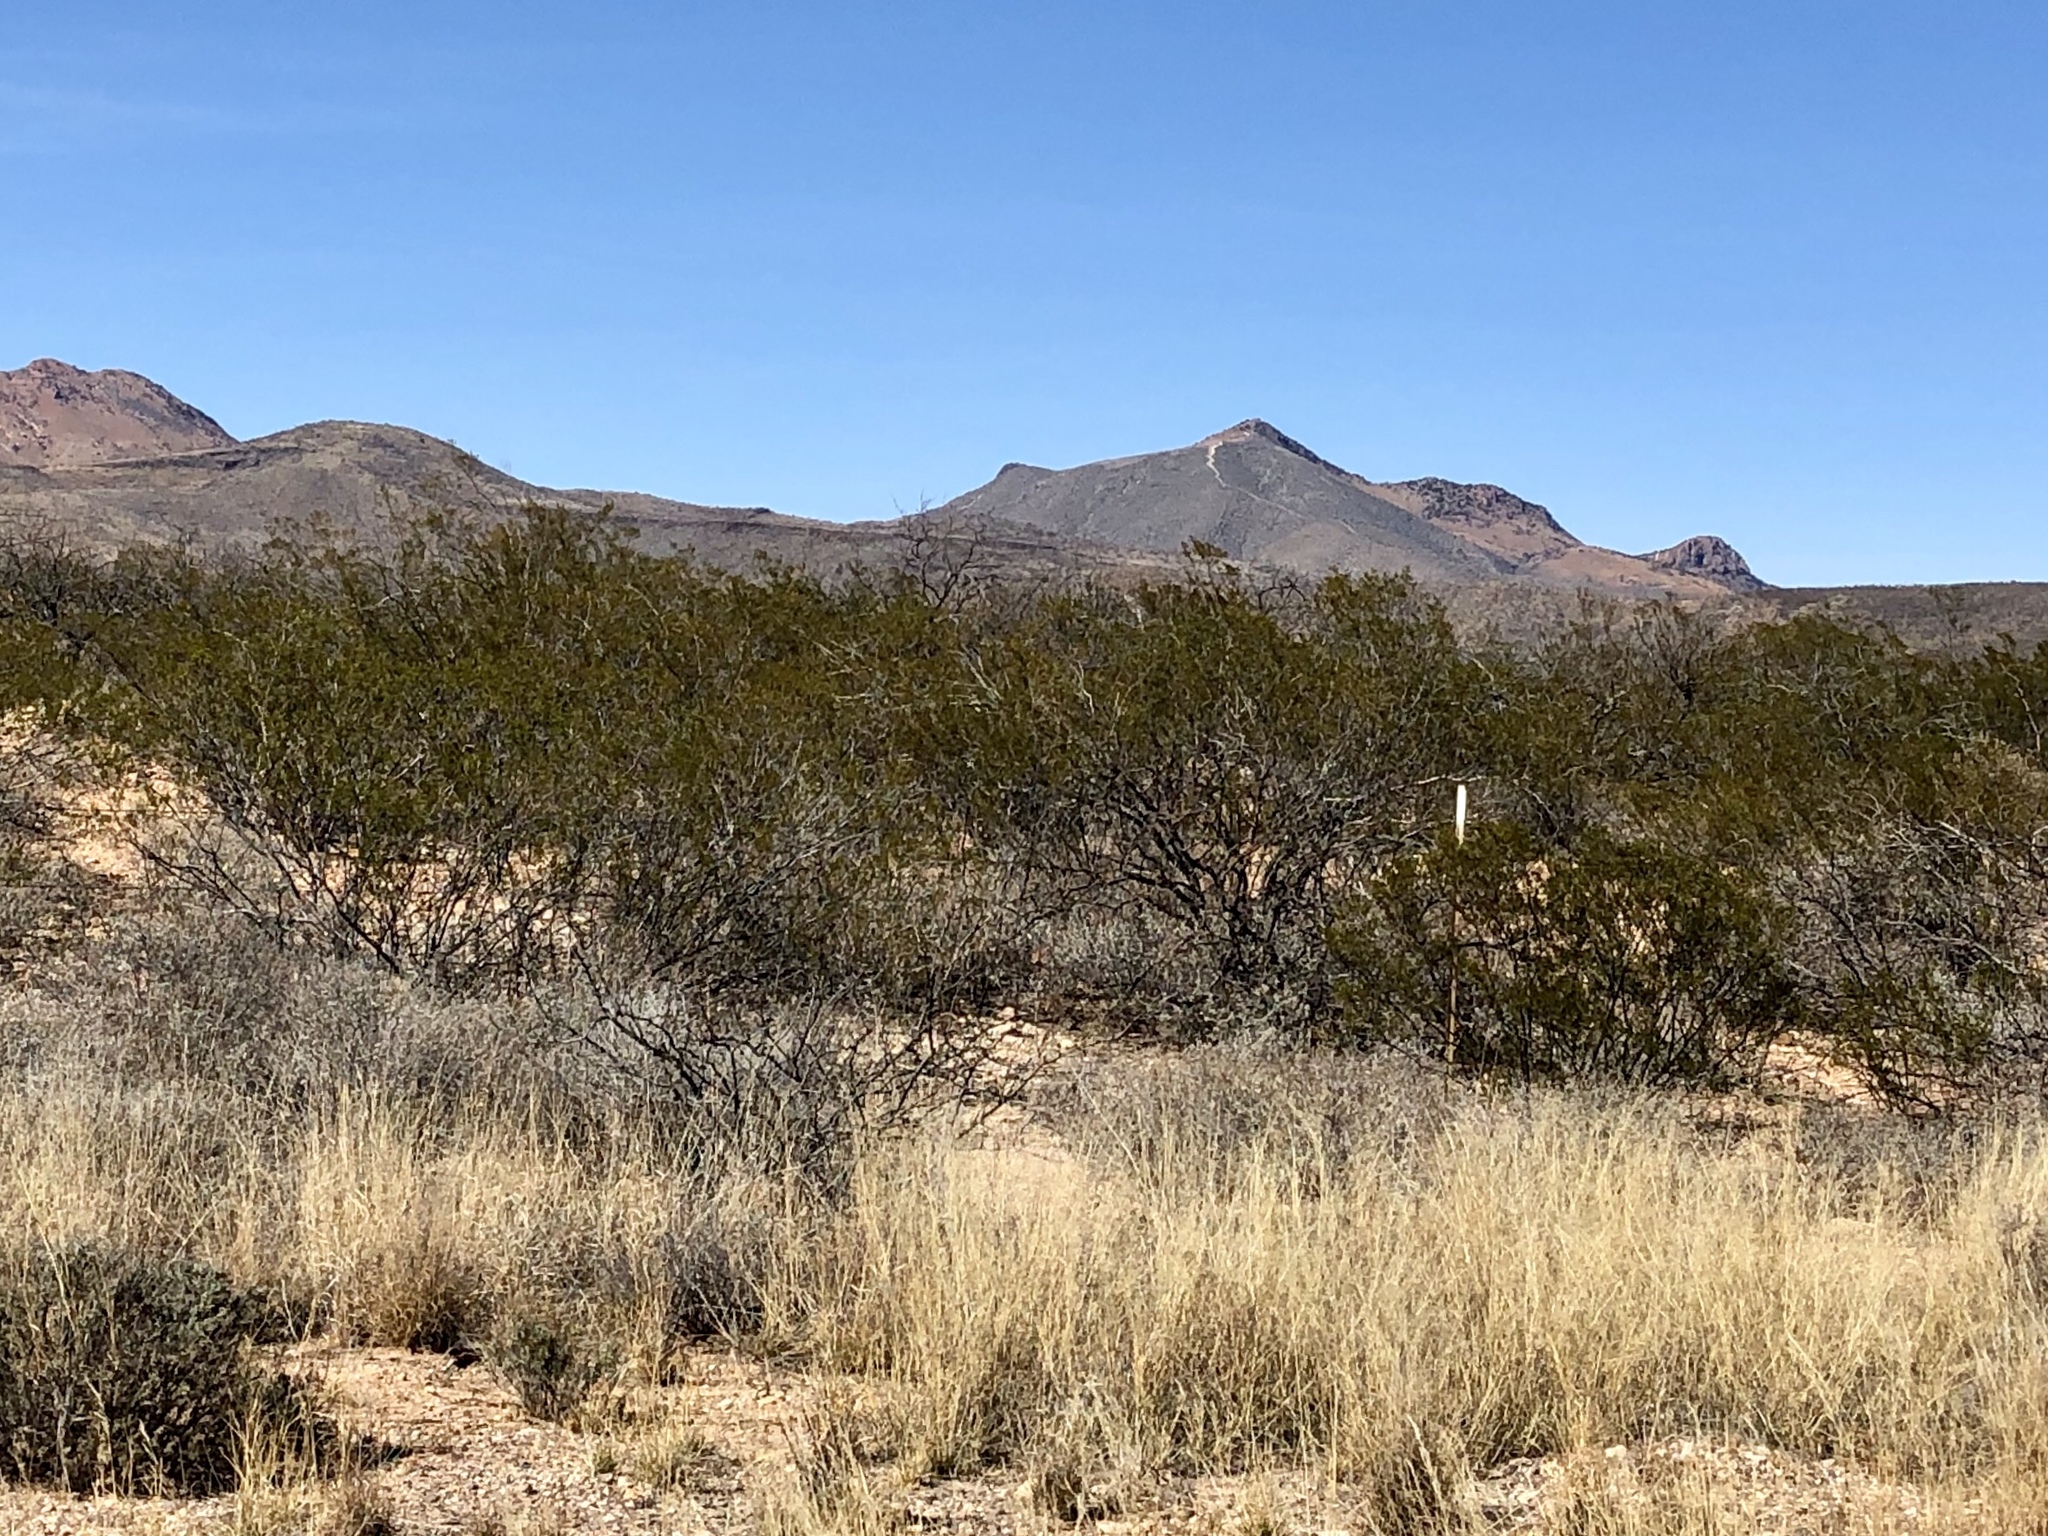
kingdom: Plantae
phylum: Tracheophyta
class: Magnoliopsida
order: Zygophyllales
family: Zygophyllaceae
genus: Larrea
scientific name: Larrea tridentata
